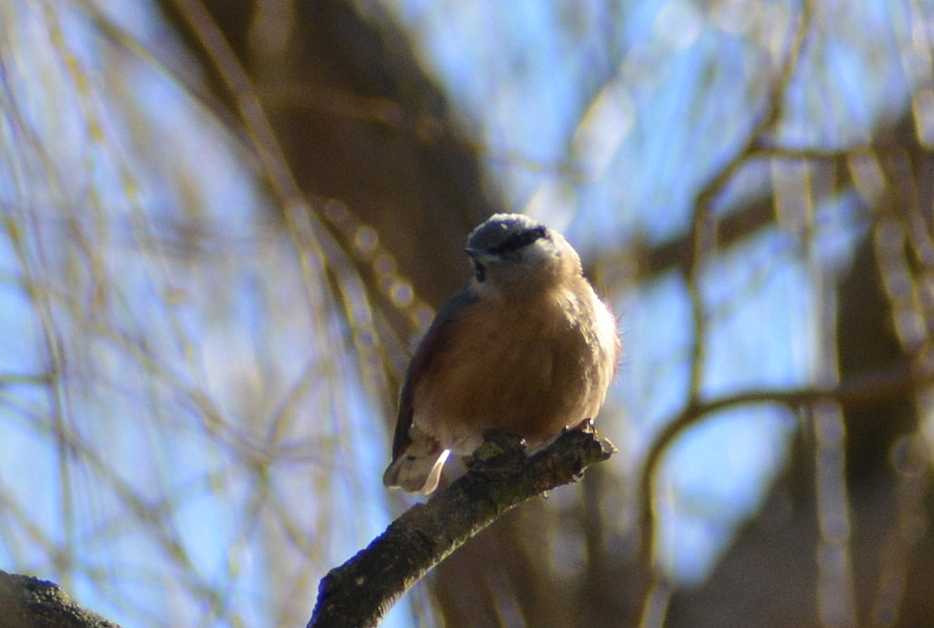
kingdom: Animalia
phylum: Chordata
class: Aves
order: Passeriformes
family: Sittidae
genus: Sitta
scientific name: Sitta europaea
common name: Eurasian nuthatch
